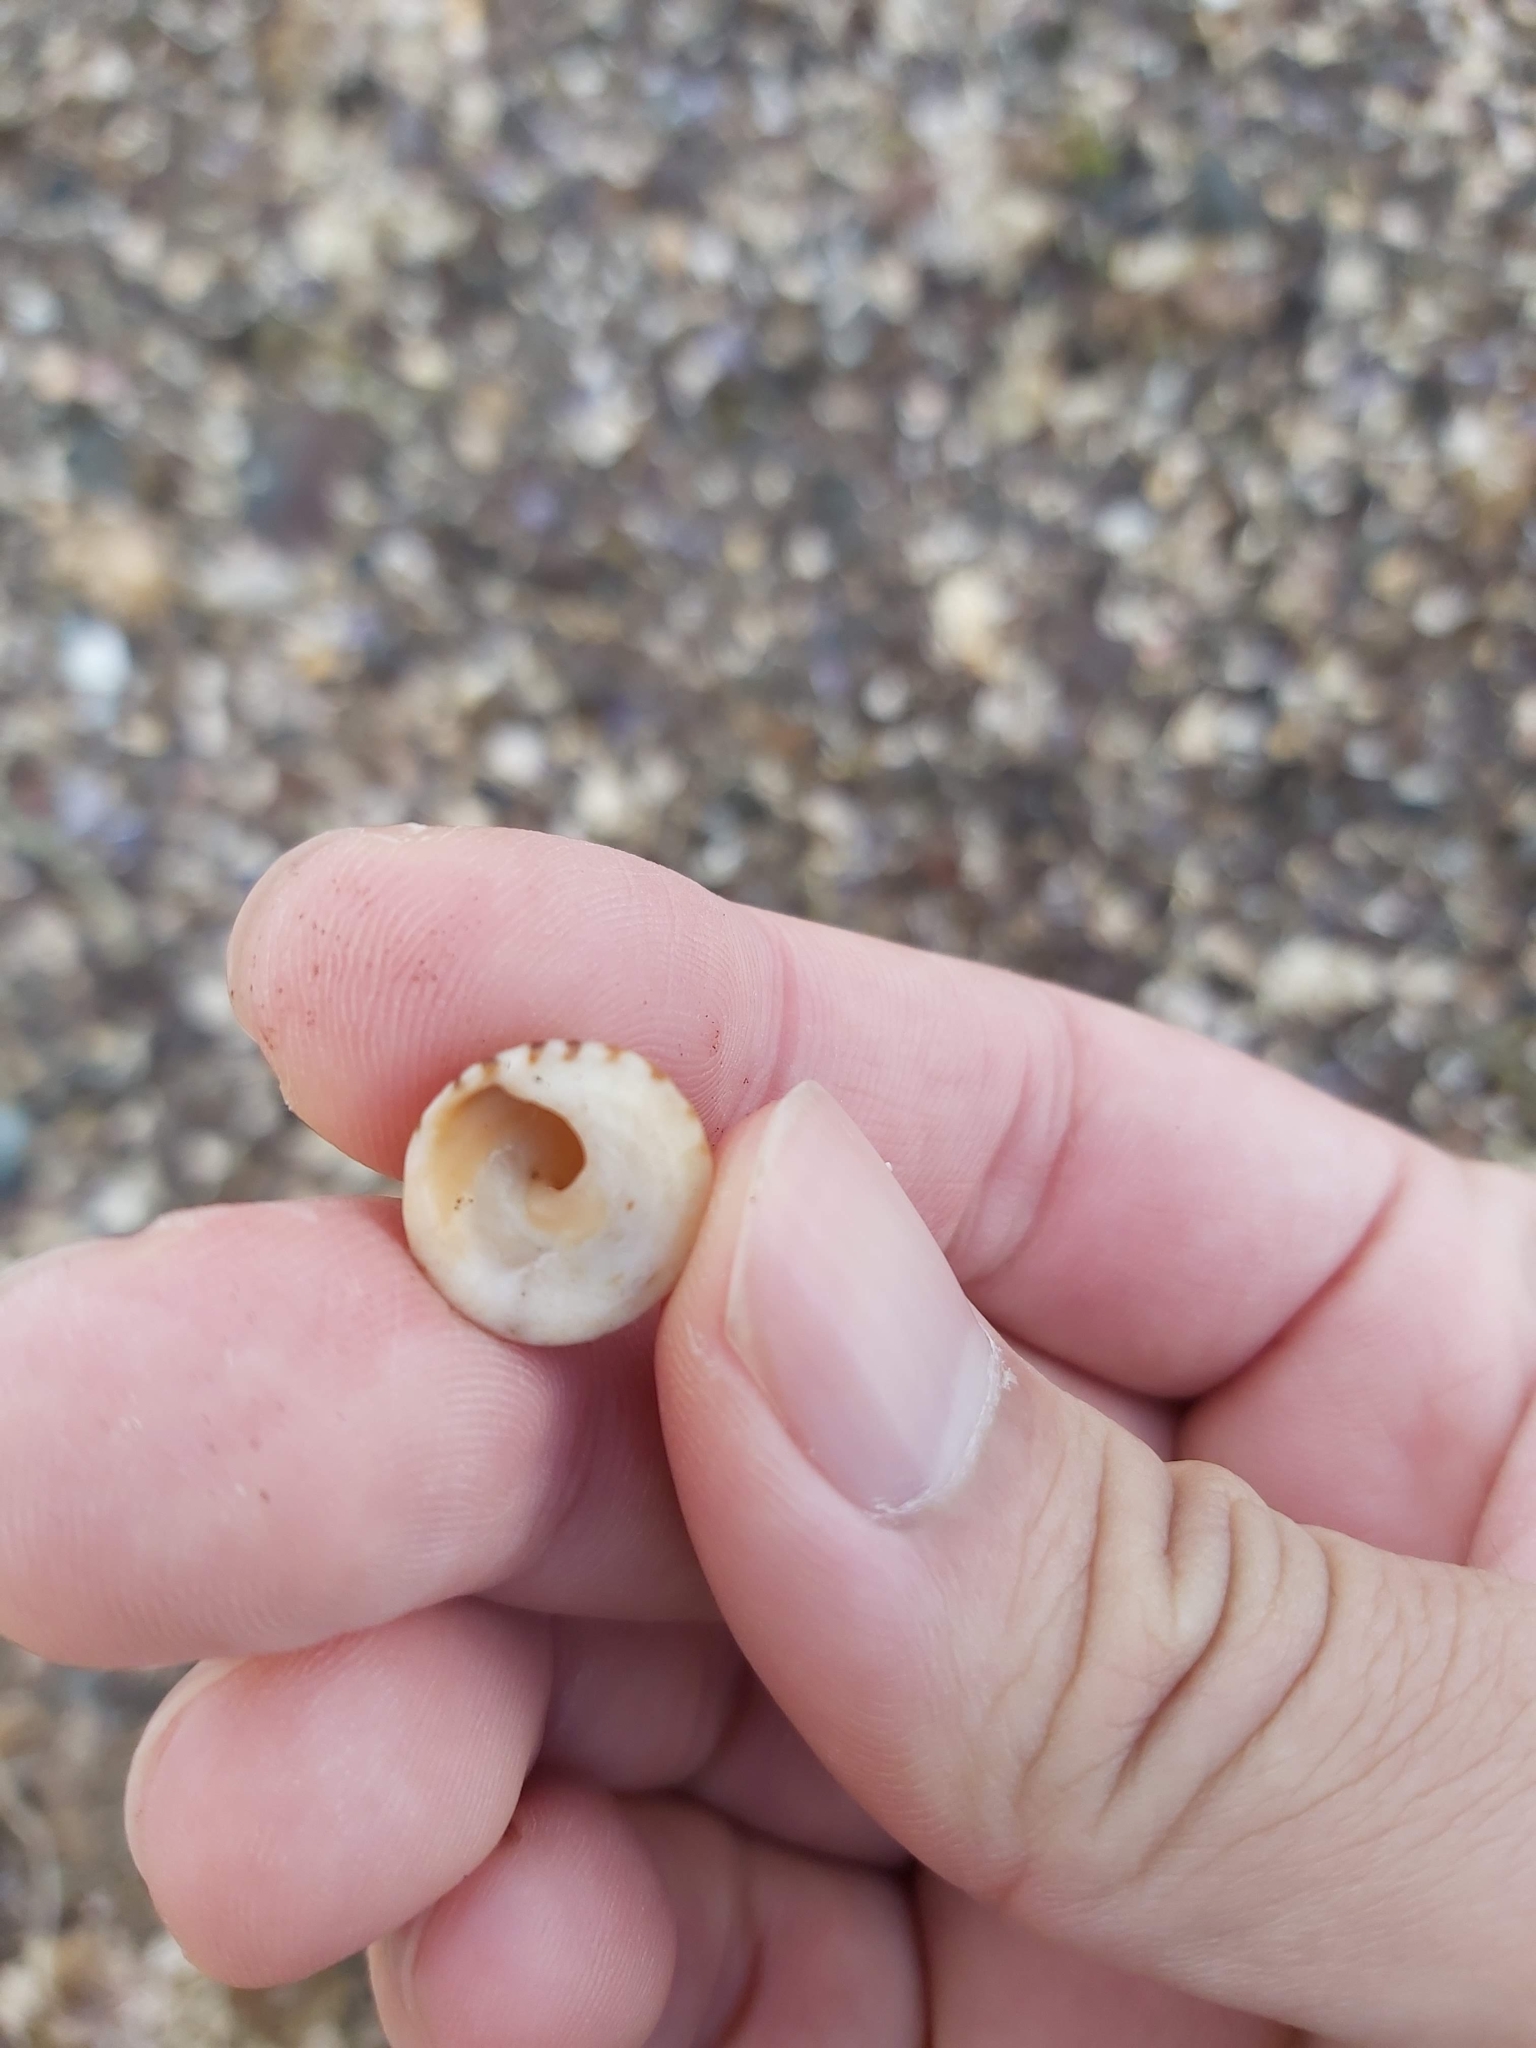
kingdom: Animalia
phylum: Mollusca
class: Gastropoda
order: Littorinimorpha
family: Littorinidae
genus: Bembicium
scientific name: Bembicium nanum
